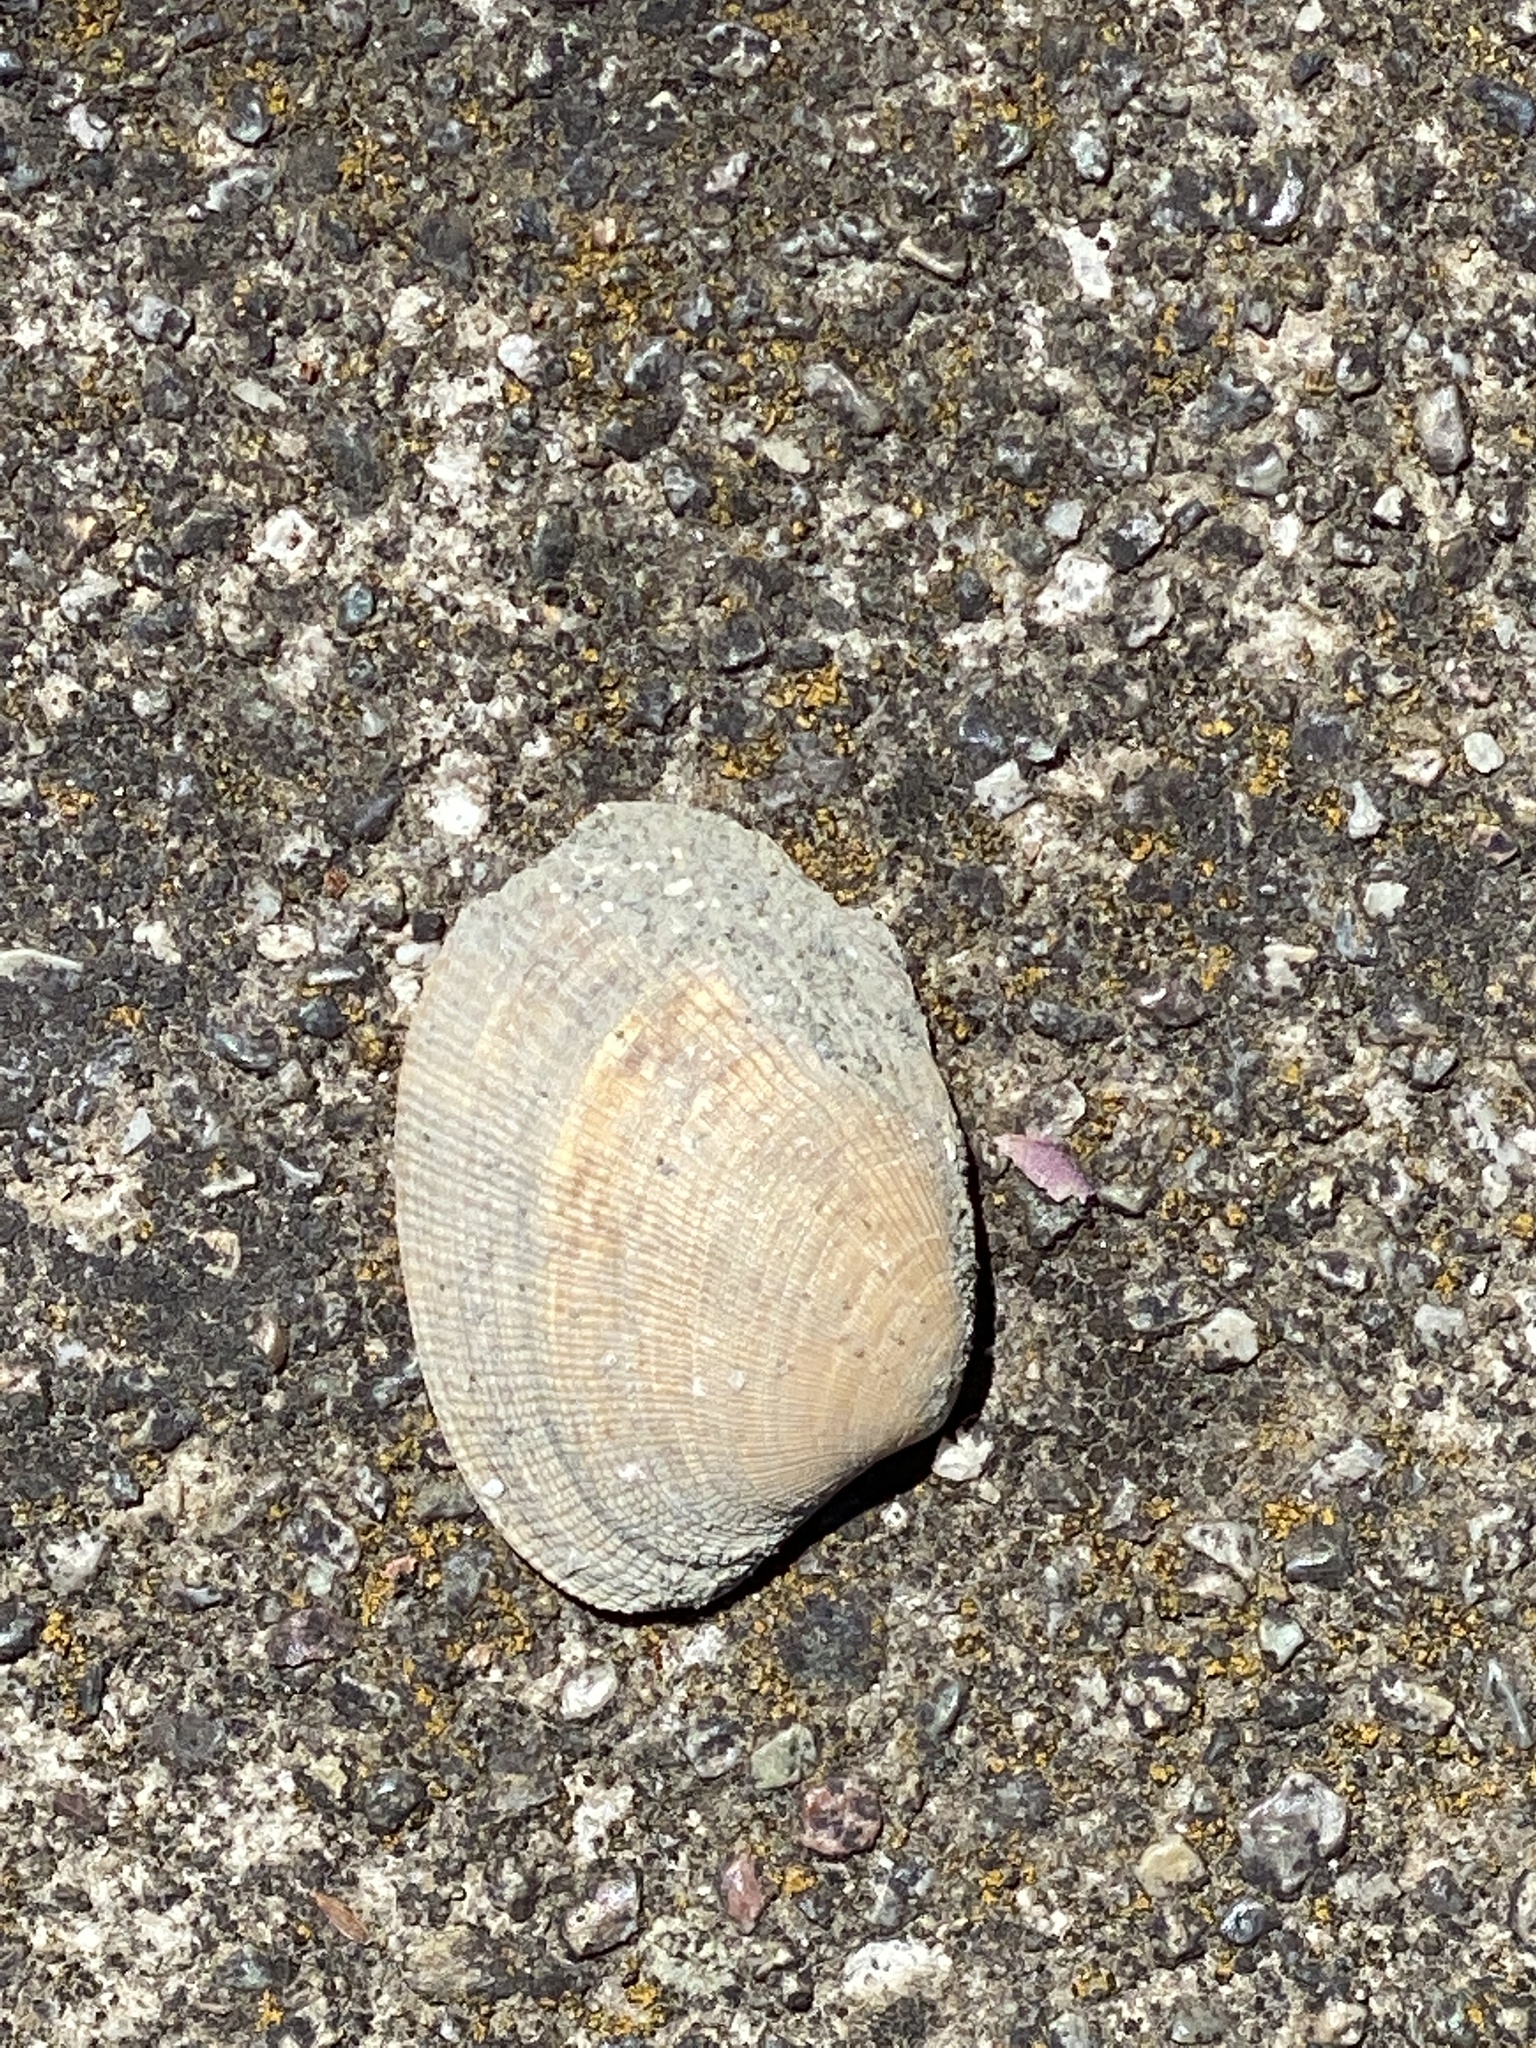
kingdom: Animalia
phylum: Mollusca
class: Bivalvia
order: Venerida
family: Veneridae
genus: Ruditapes
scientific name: Ruditapes philippinarum
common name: Manila clam
